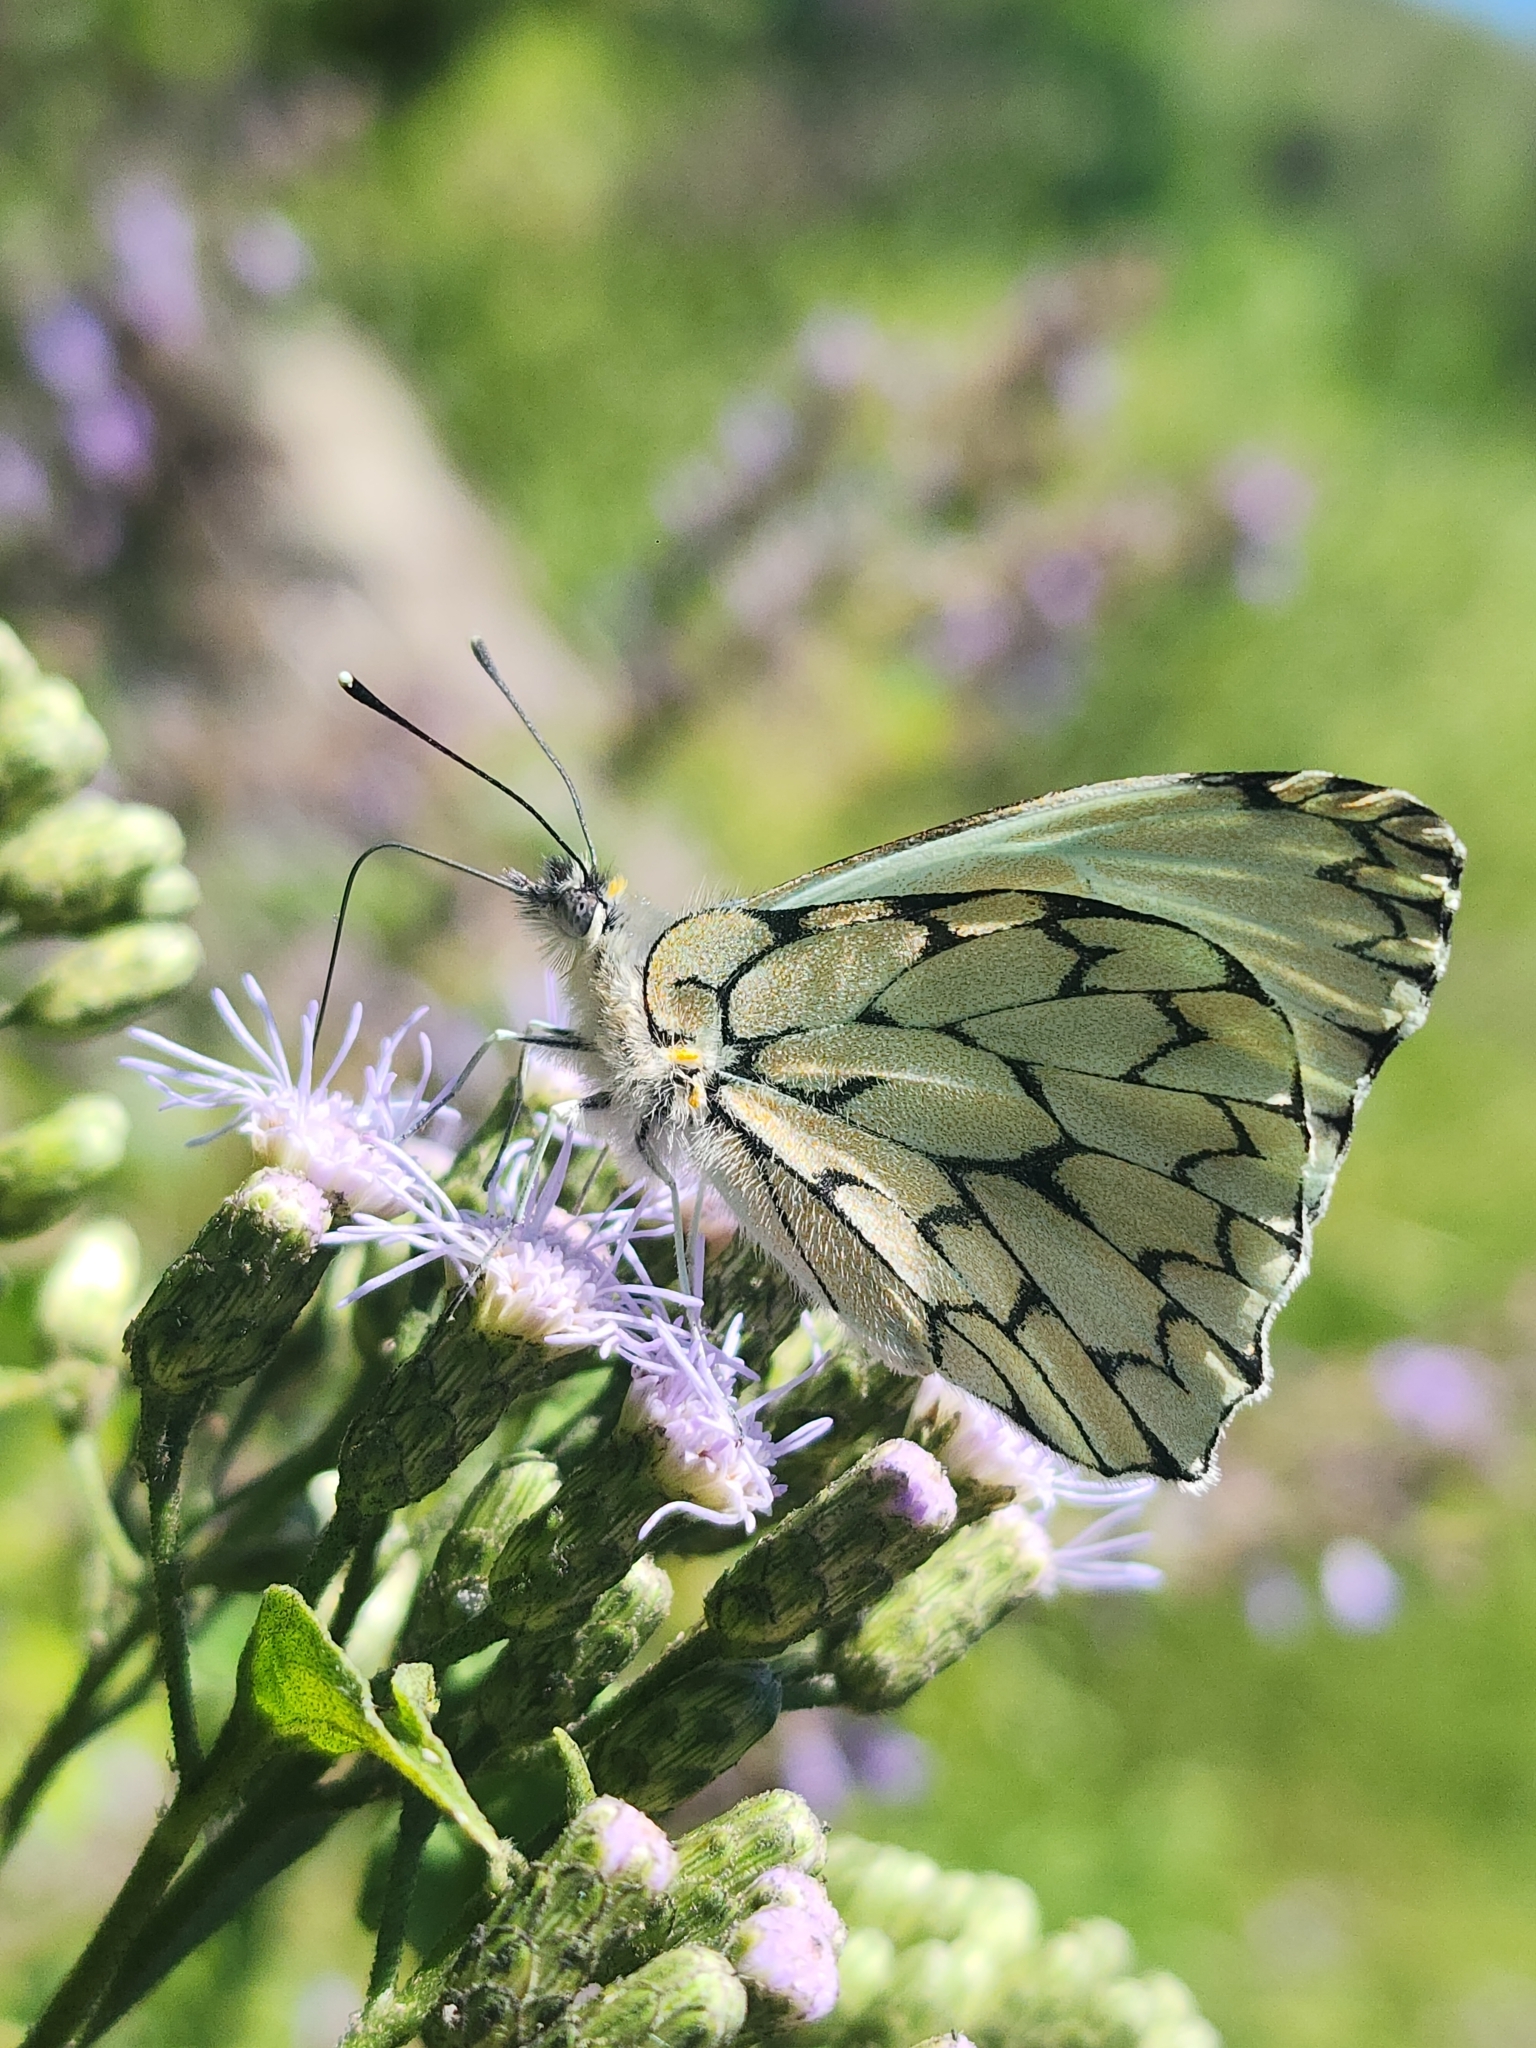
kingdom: Animalia
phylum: Arthropoda
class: Insecta
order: Lepidoptera
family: Pieridae
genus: Hesperocharis
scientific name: Hesperocharis marchalii
